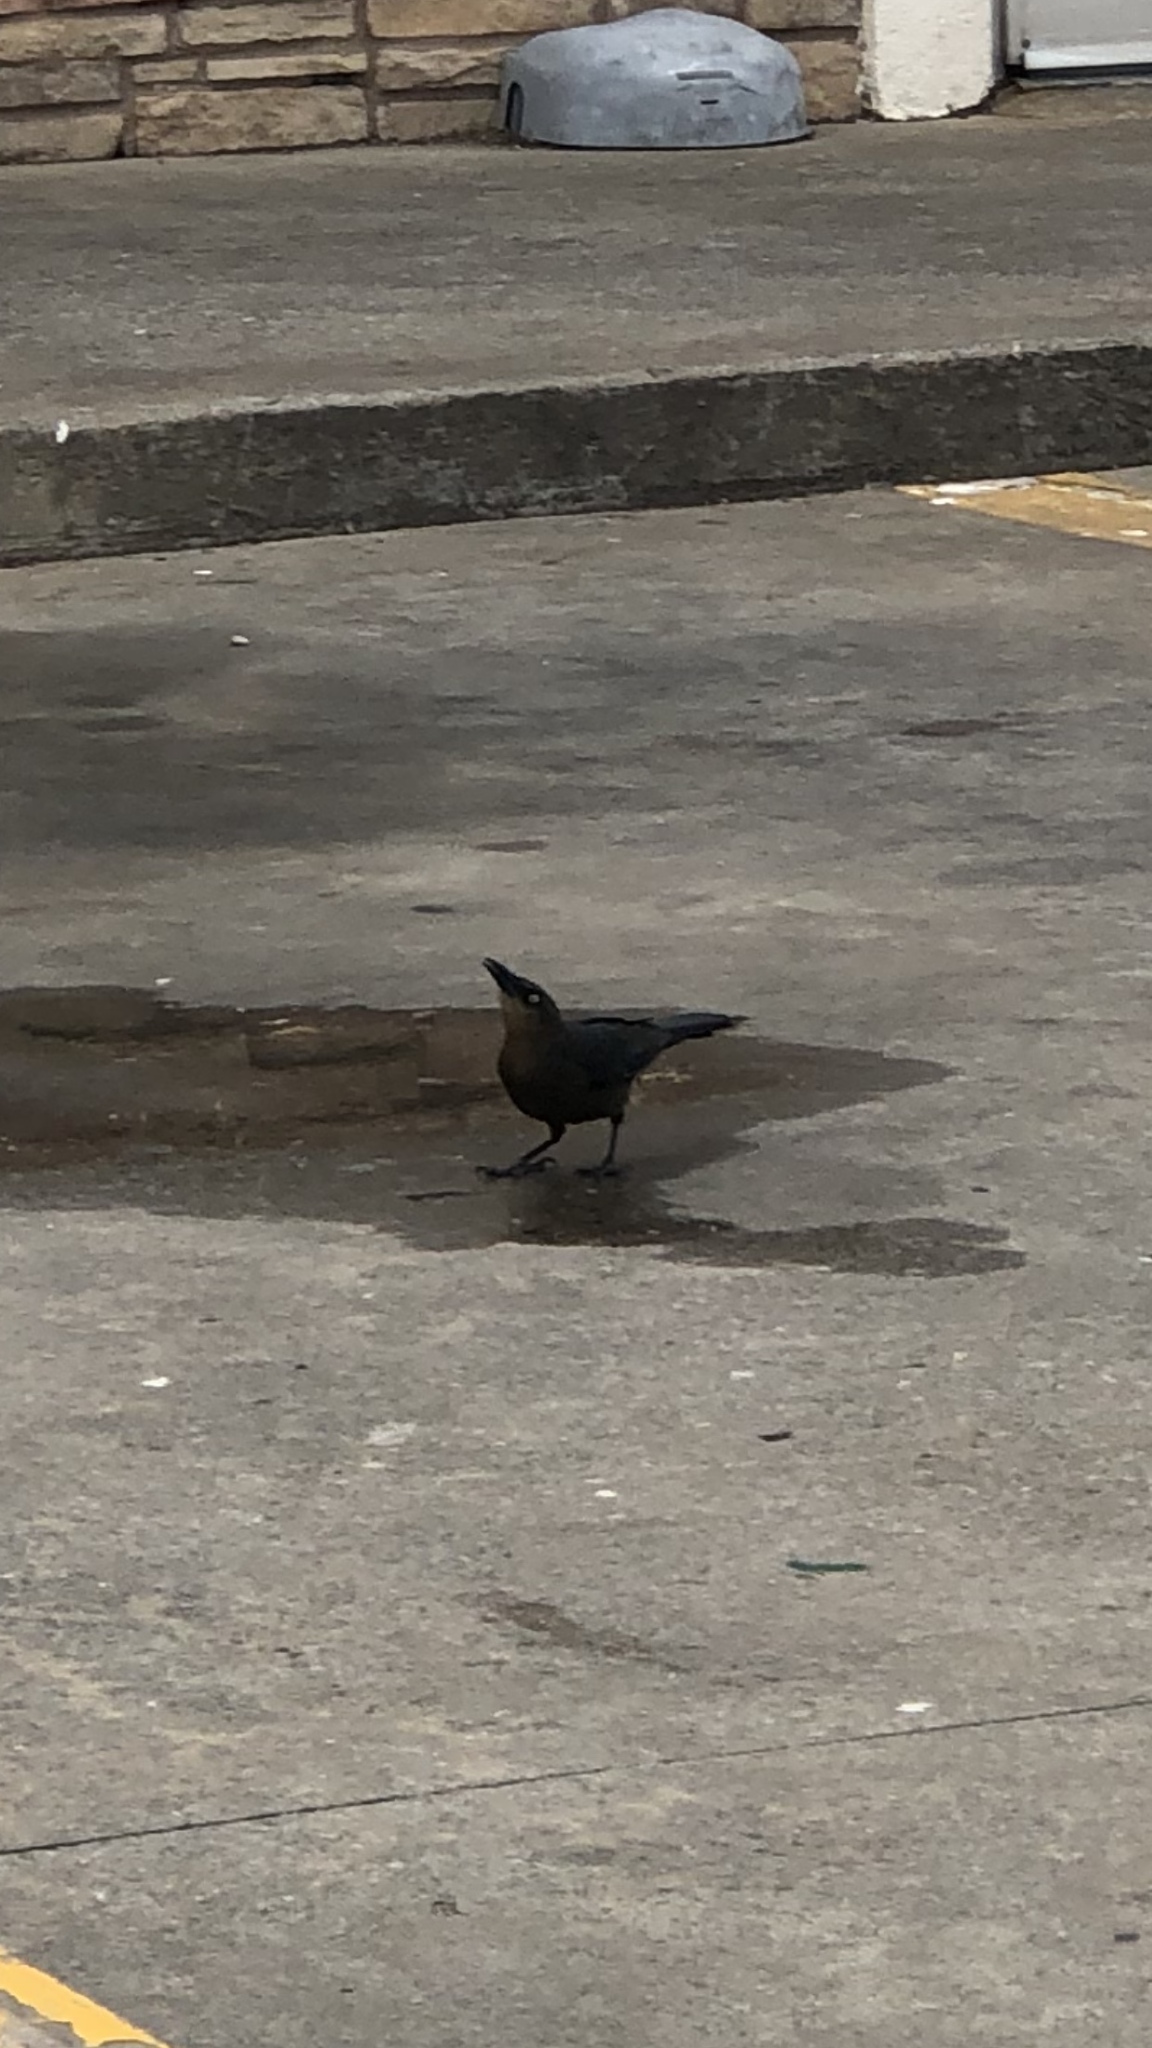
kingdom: Animalia
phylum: Chordata
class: Aves
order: Passeriformes
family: Icteridae
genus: Quiscalus
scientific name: Quiscalus mexicanus
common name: Great-tailed grackle
